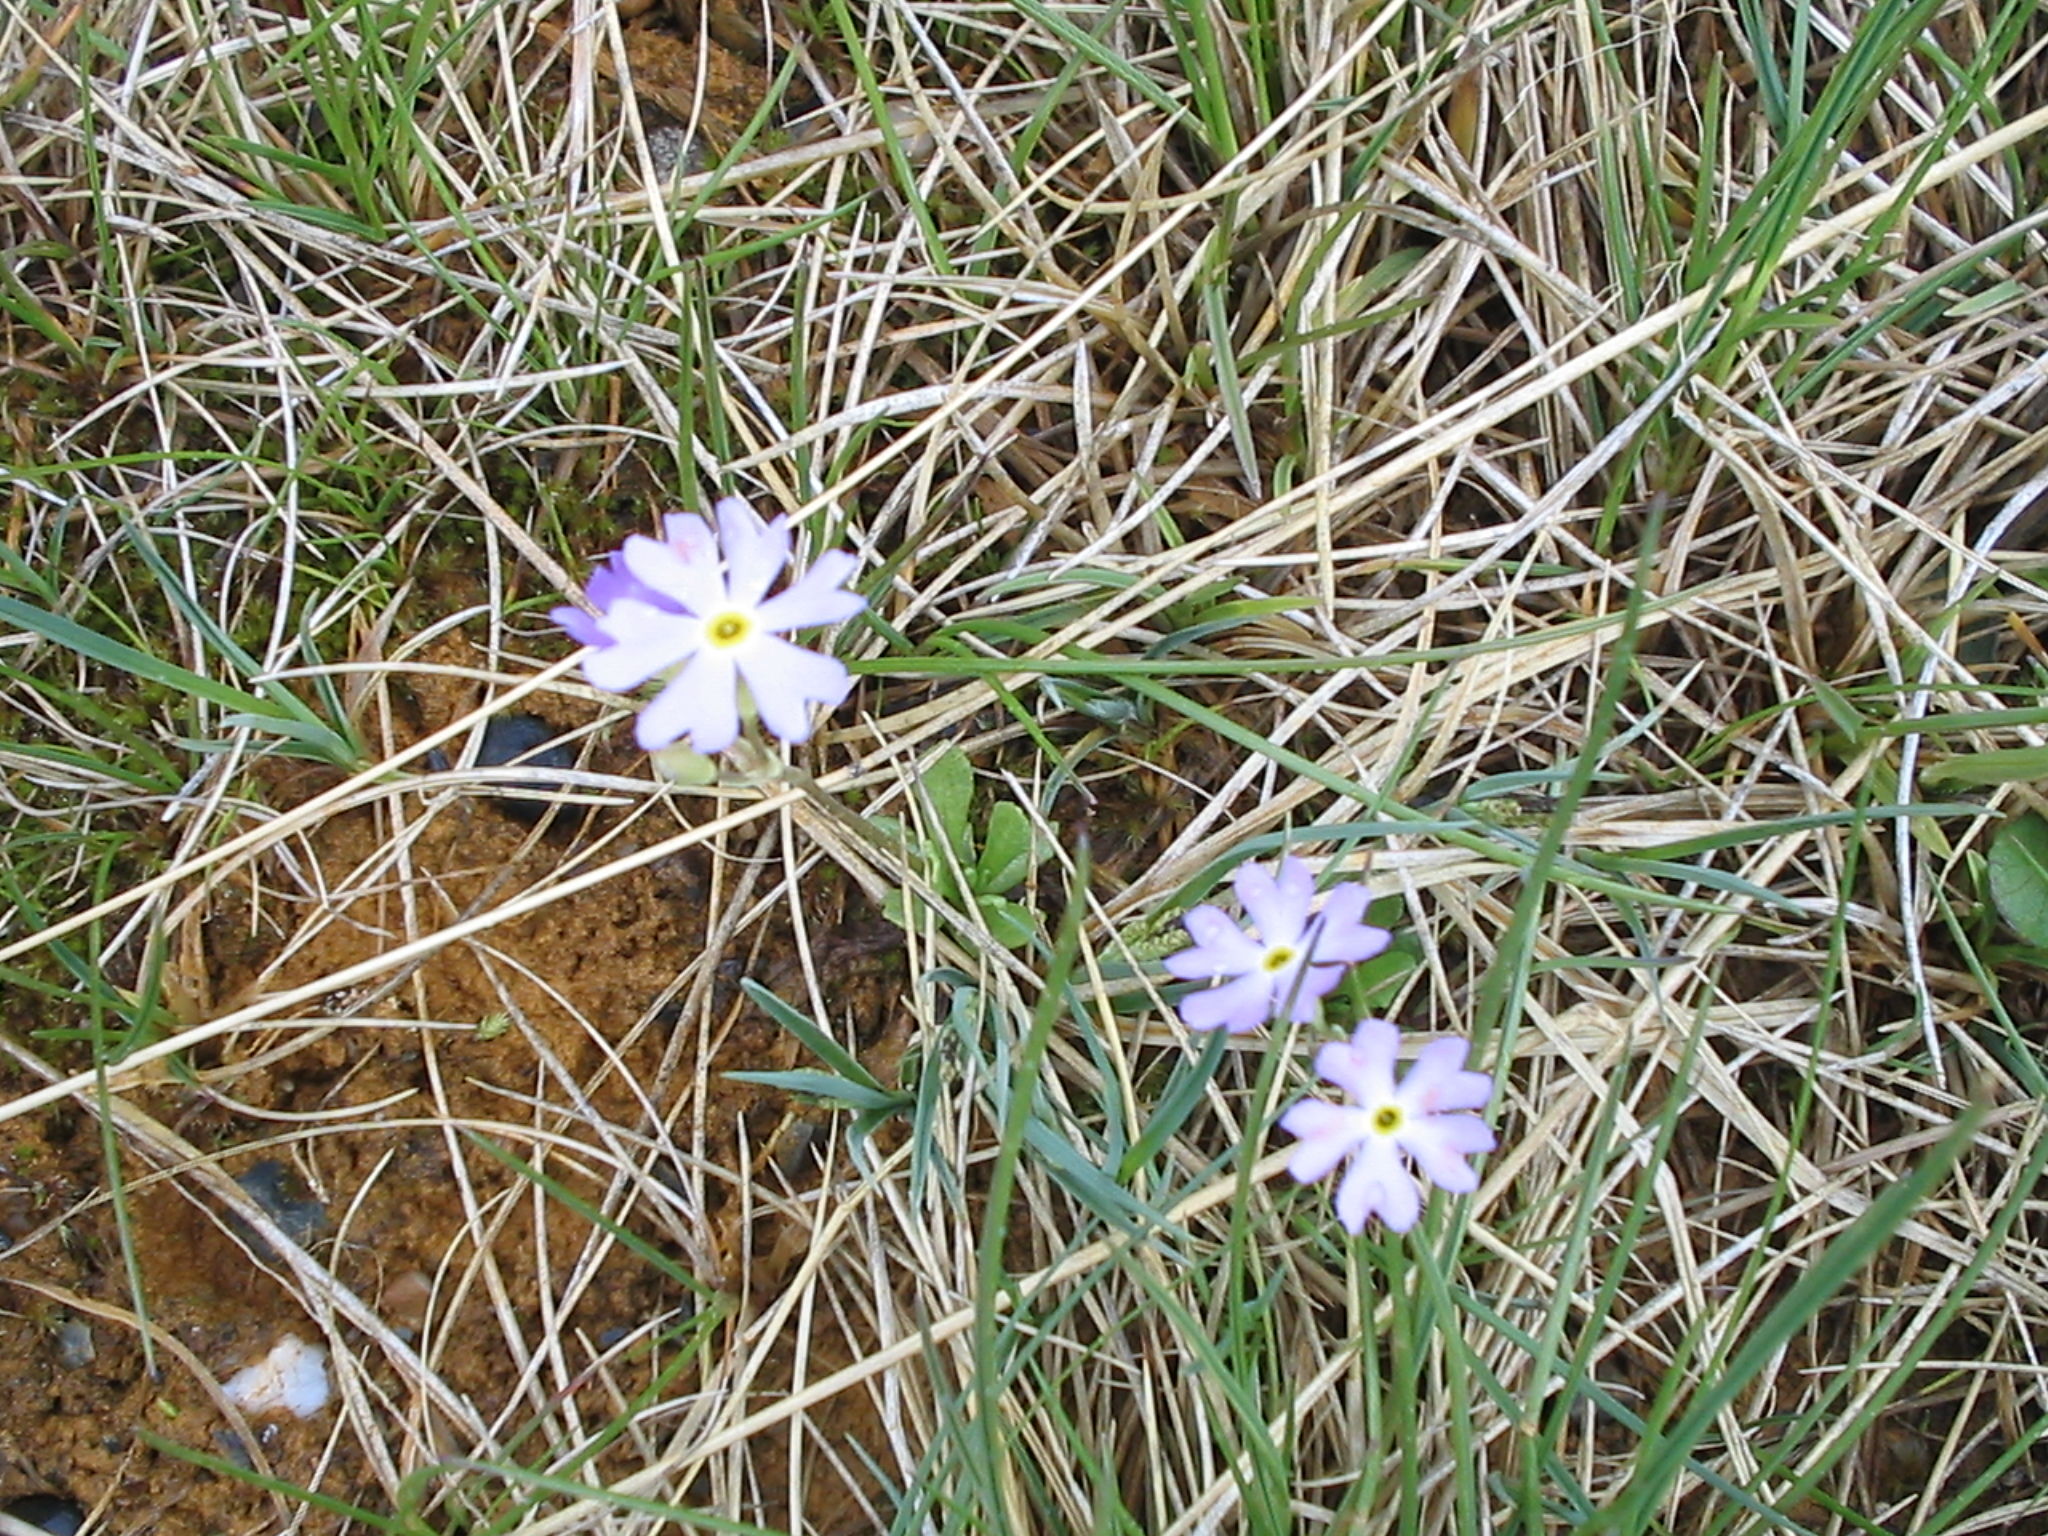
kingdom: Plantae
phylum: Tracheophyta
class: Magnoliopsida
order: Ericales
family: Primulaceae
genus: Primula
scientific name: Primula mistassinica
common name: Bird's-eye primrose
